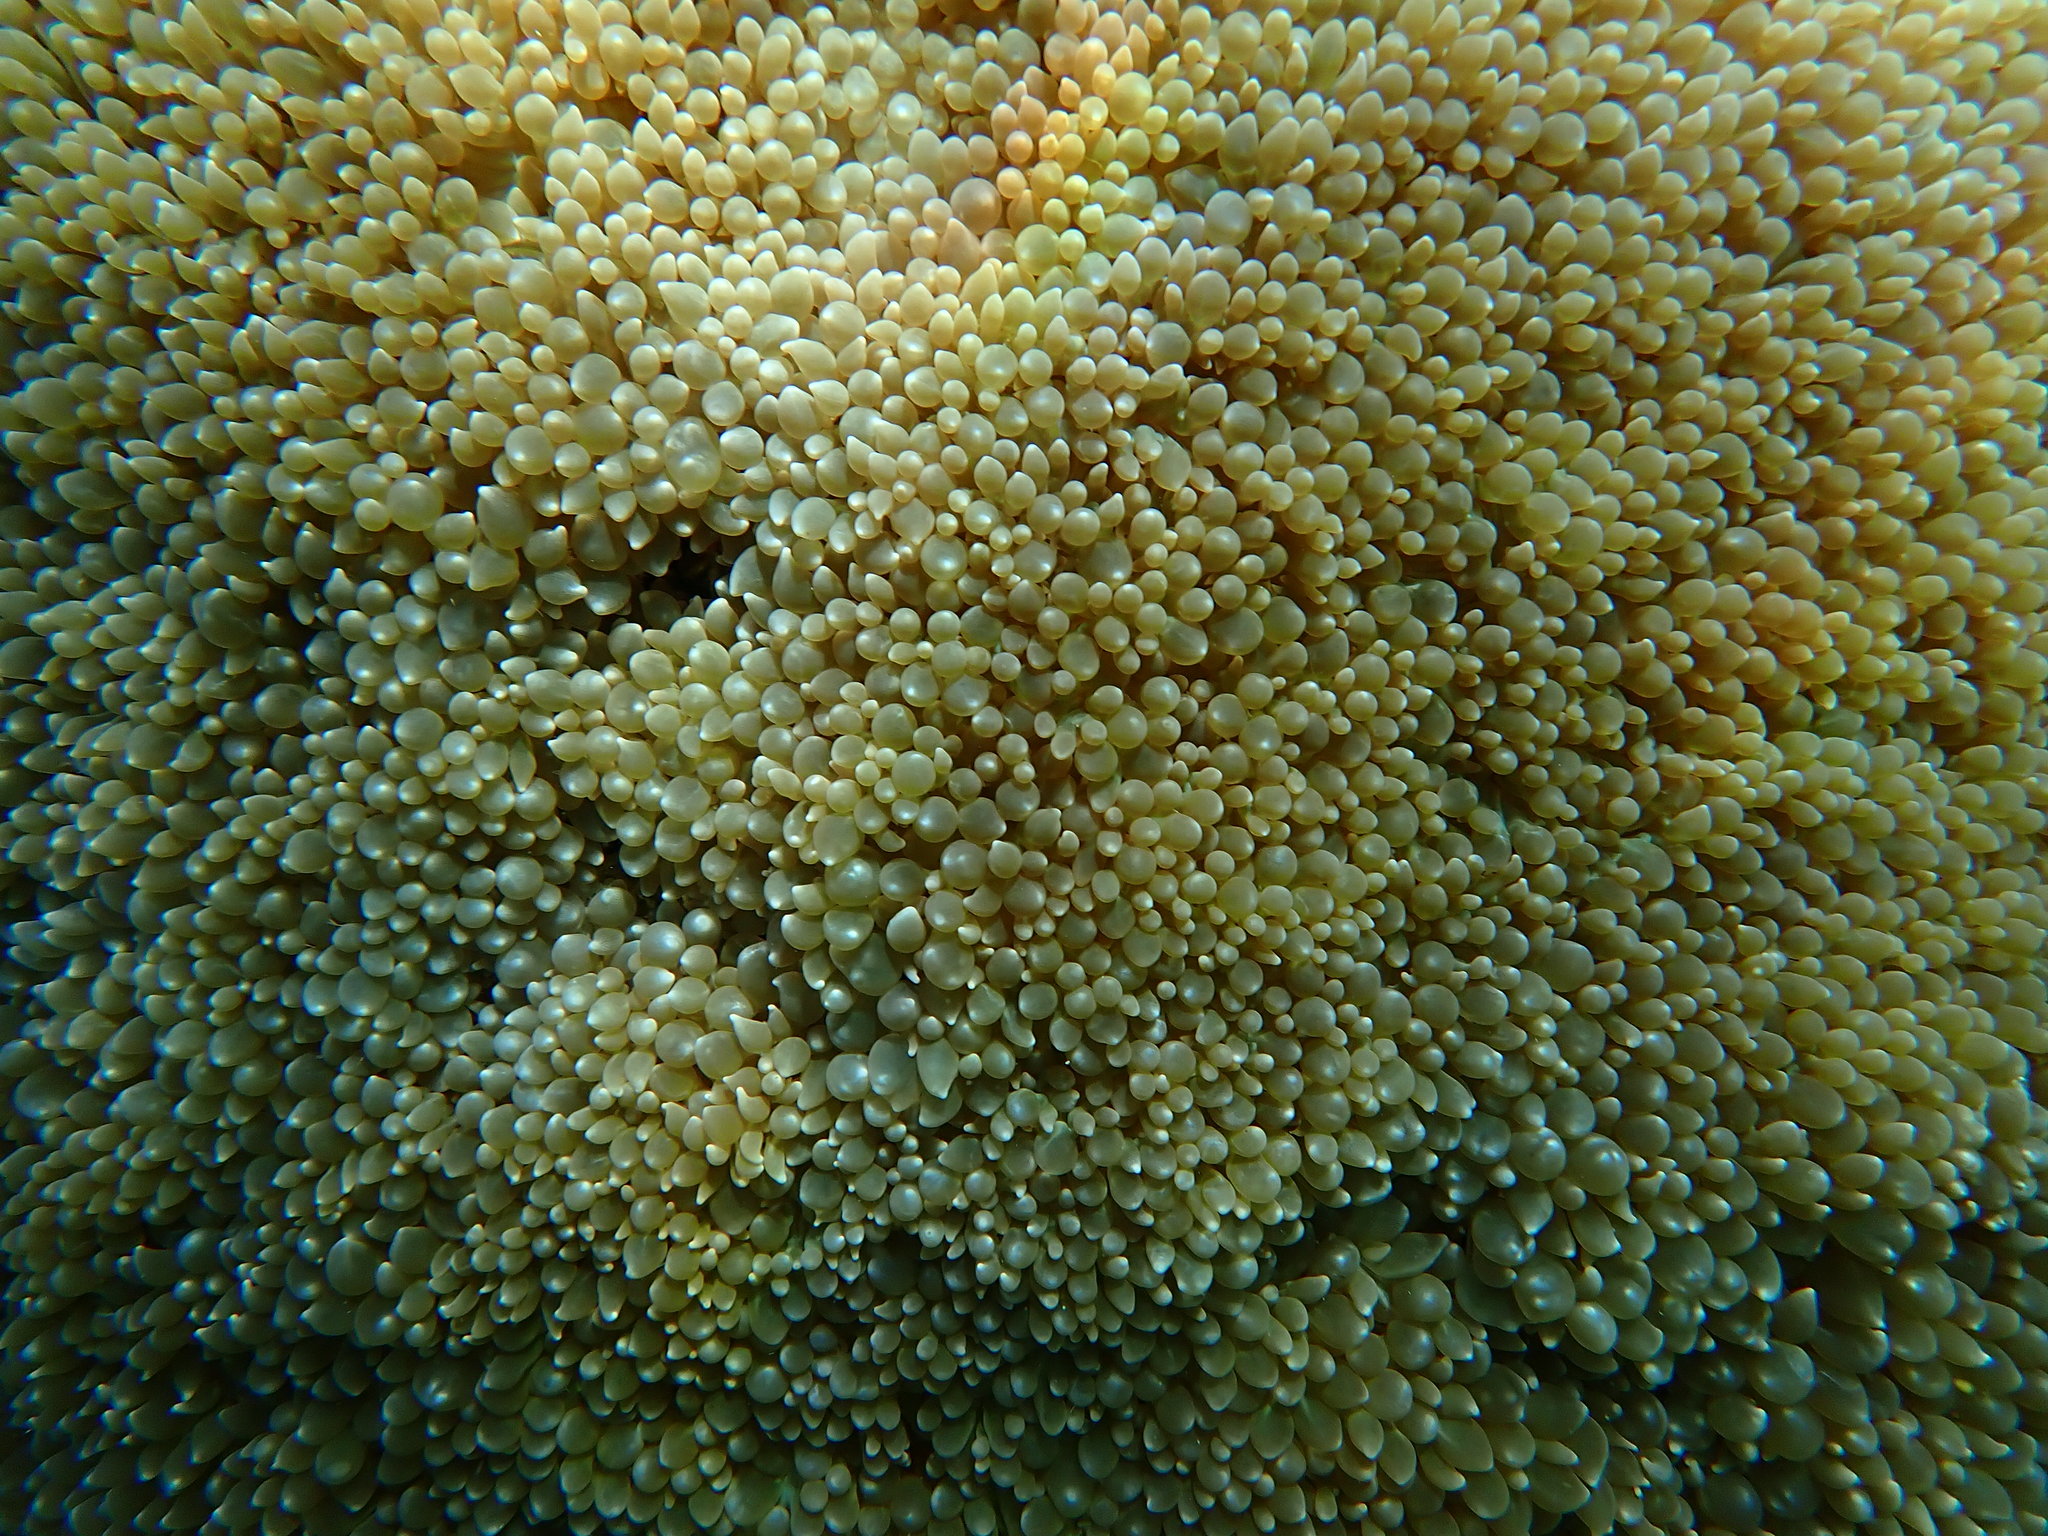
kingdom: Animalia
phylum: Cnidaria
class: Anthozoa
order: Scleractinia
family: Plerogyridae
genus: Physogyra
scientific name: Physogyra lichtensteini
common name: Tipped bubblegum coral
